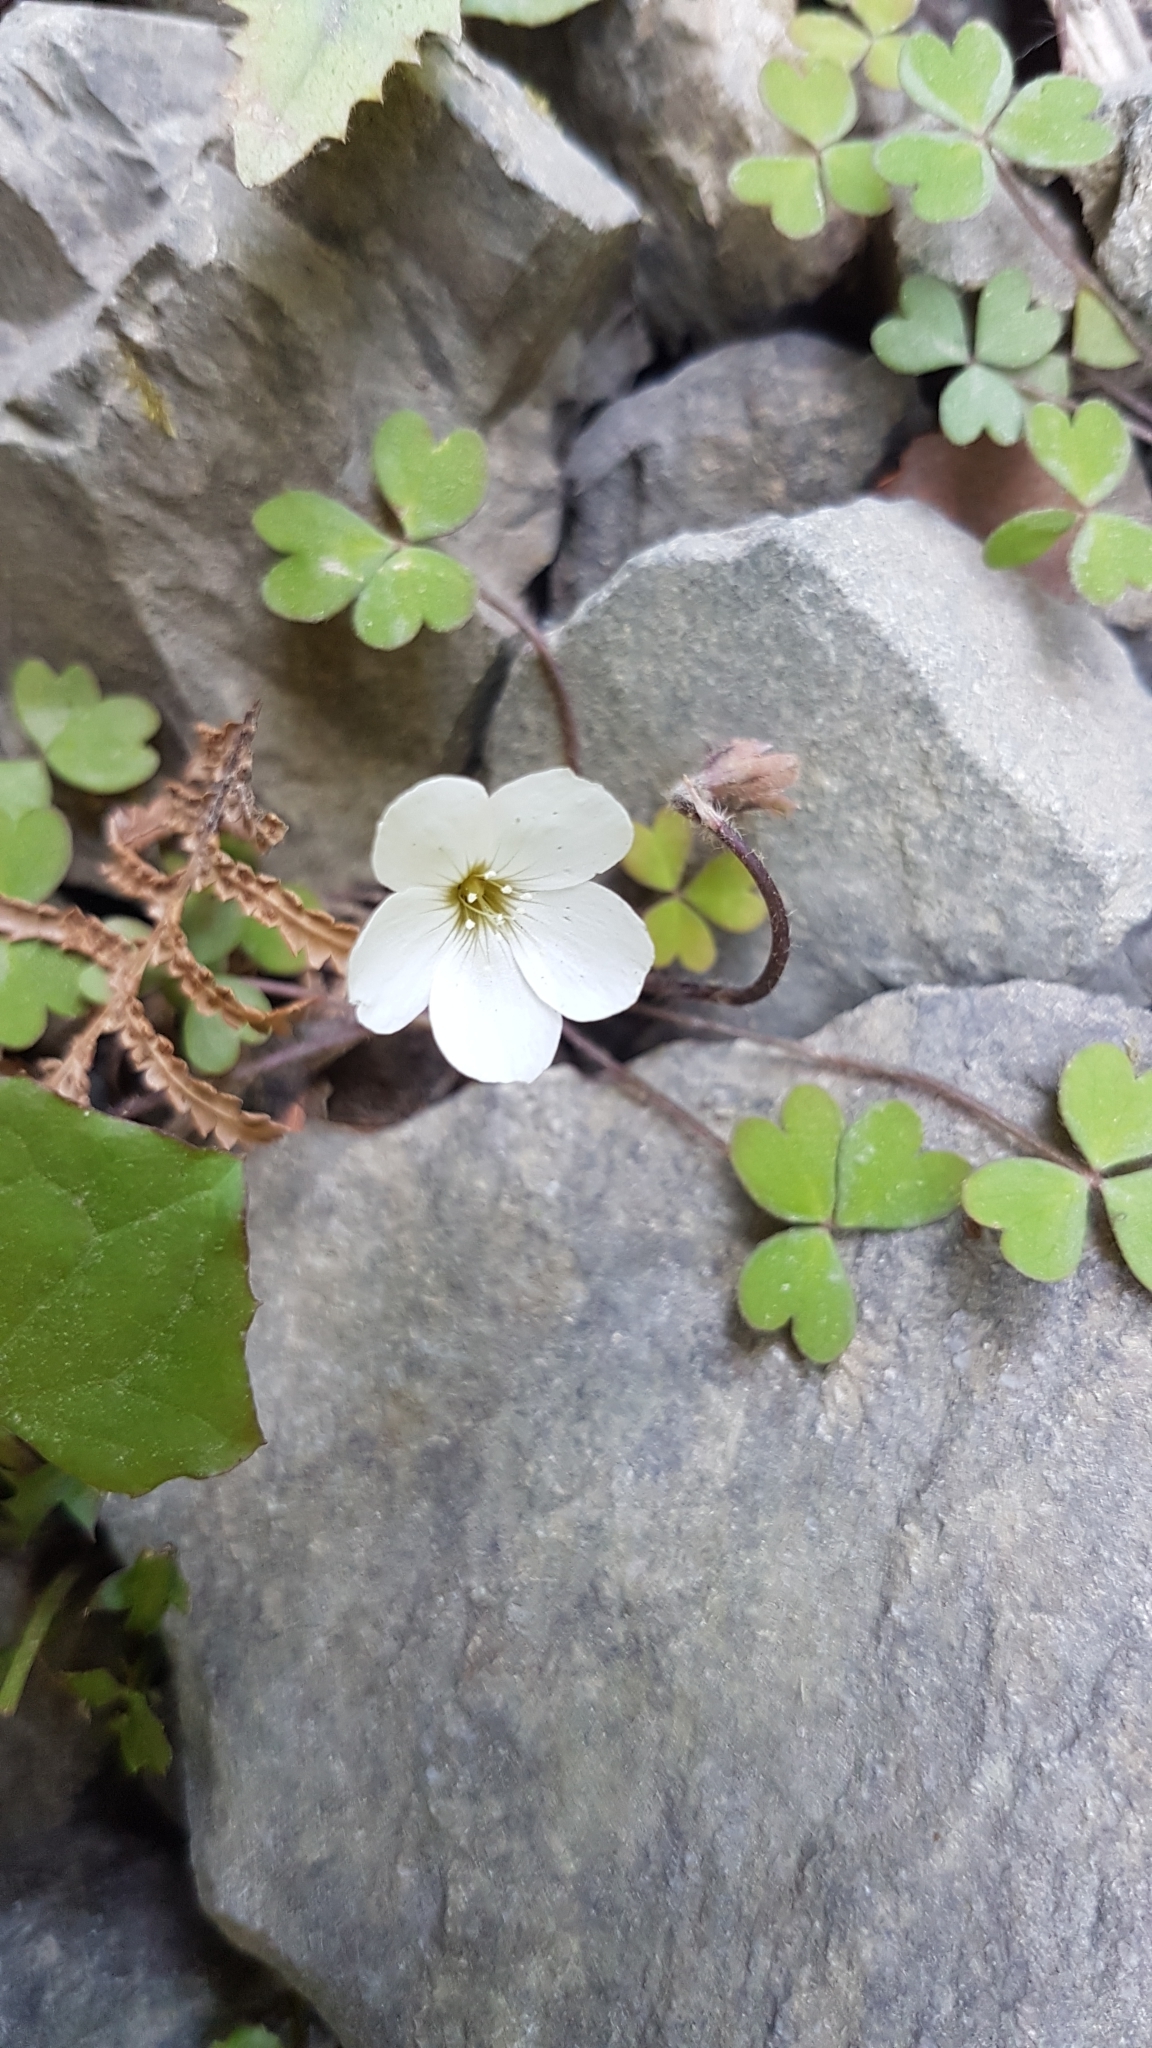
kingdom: Plantae
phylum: Tracheophyta
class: Magnoliopsida
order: Oxalidales
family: Oxalidaceae
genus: Oxalis
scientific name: Oxalis magellanica
